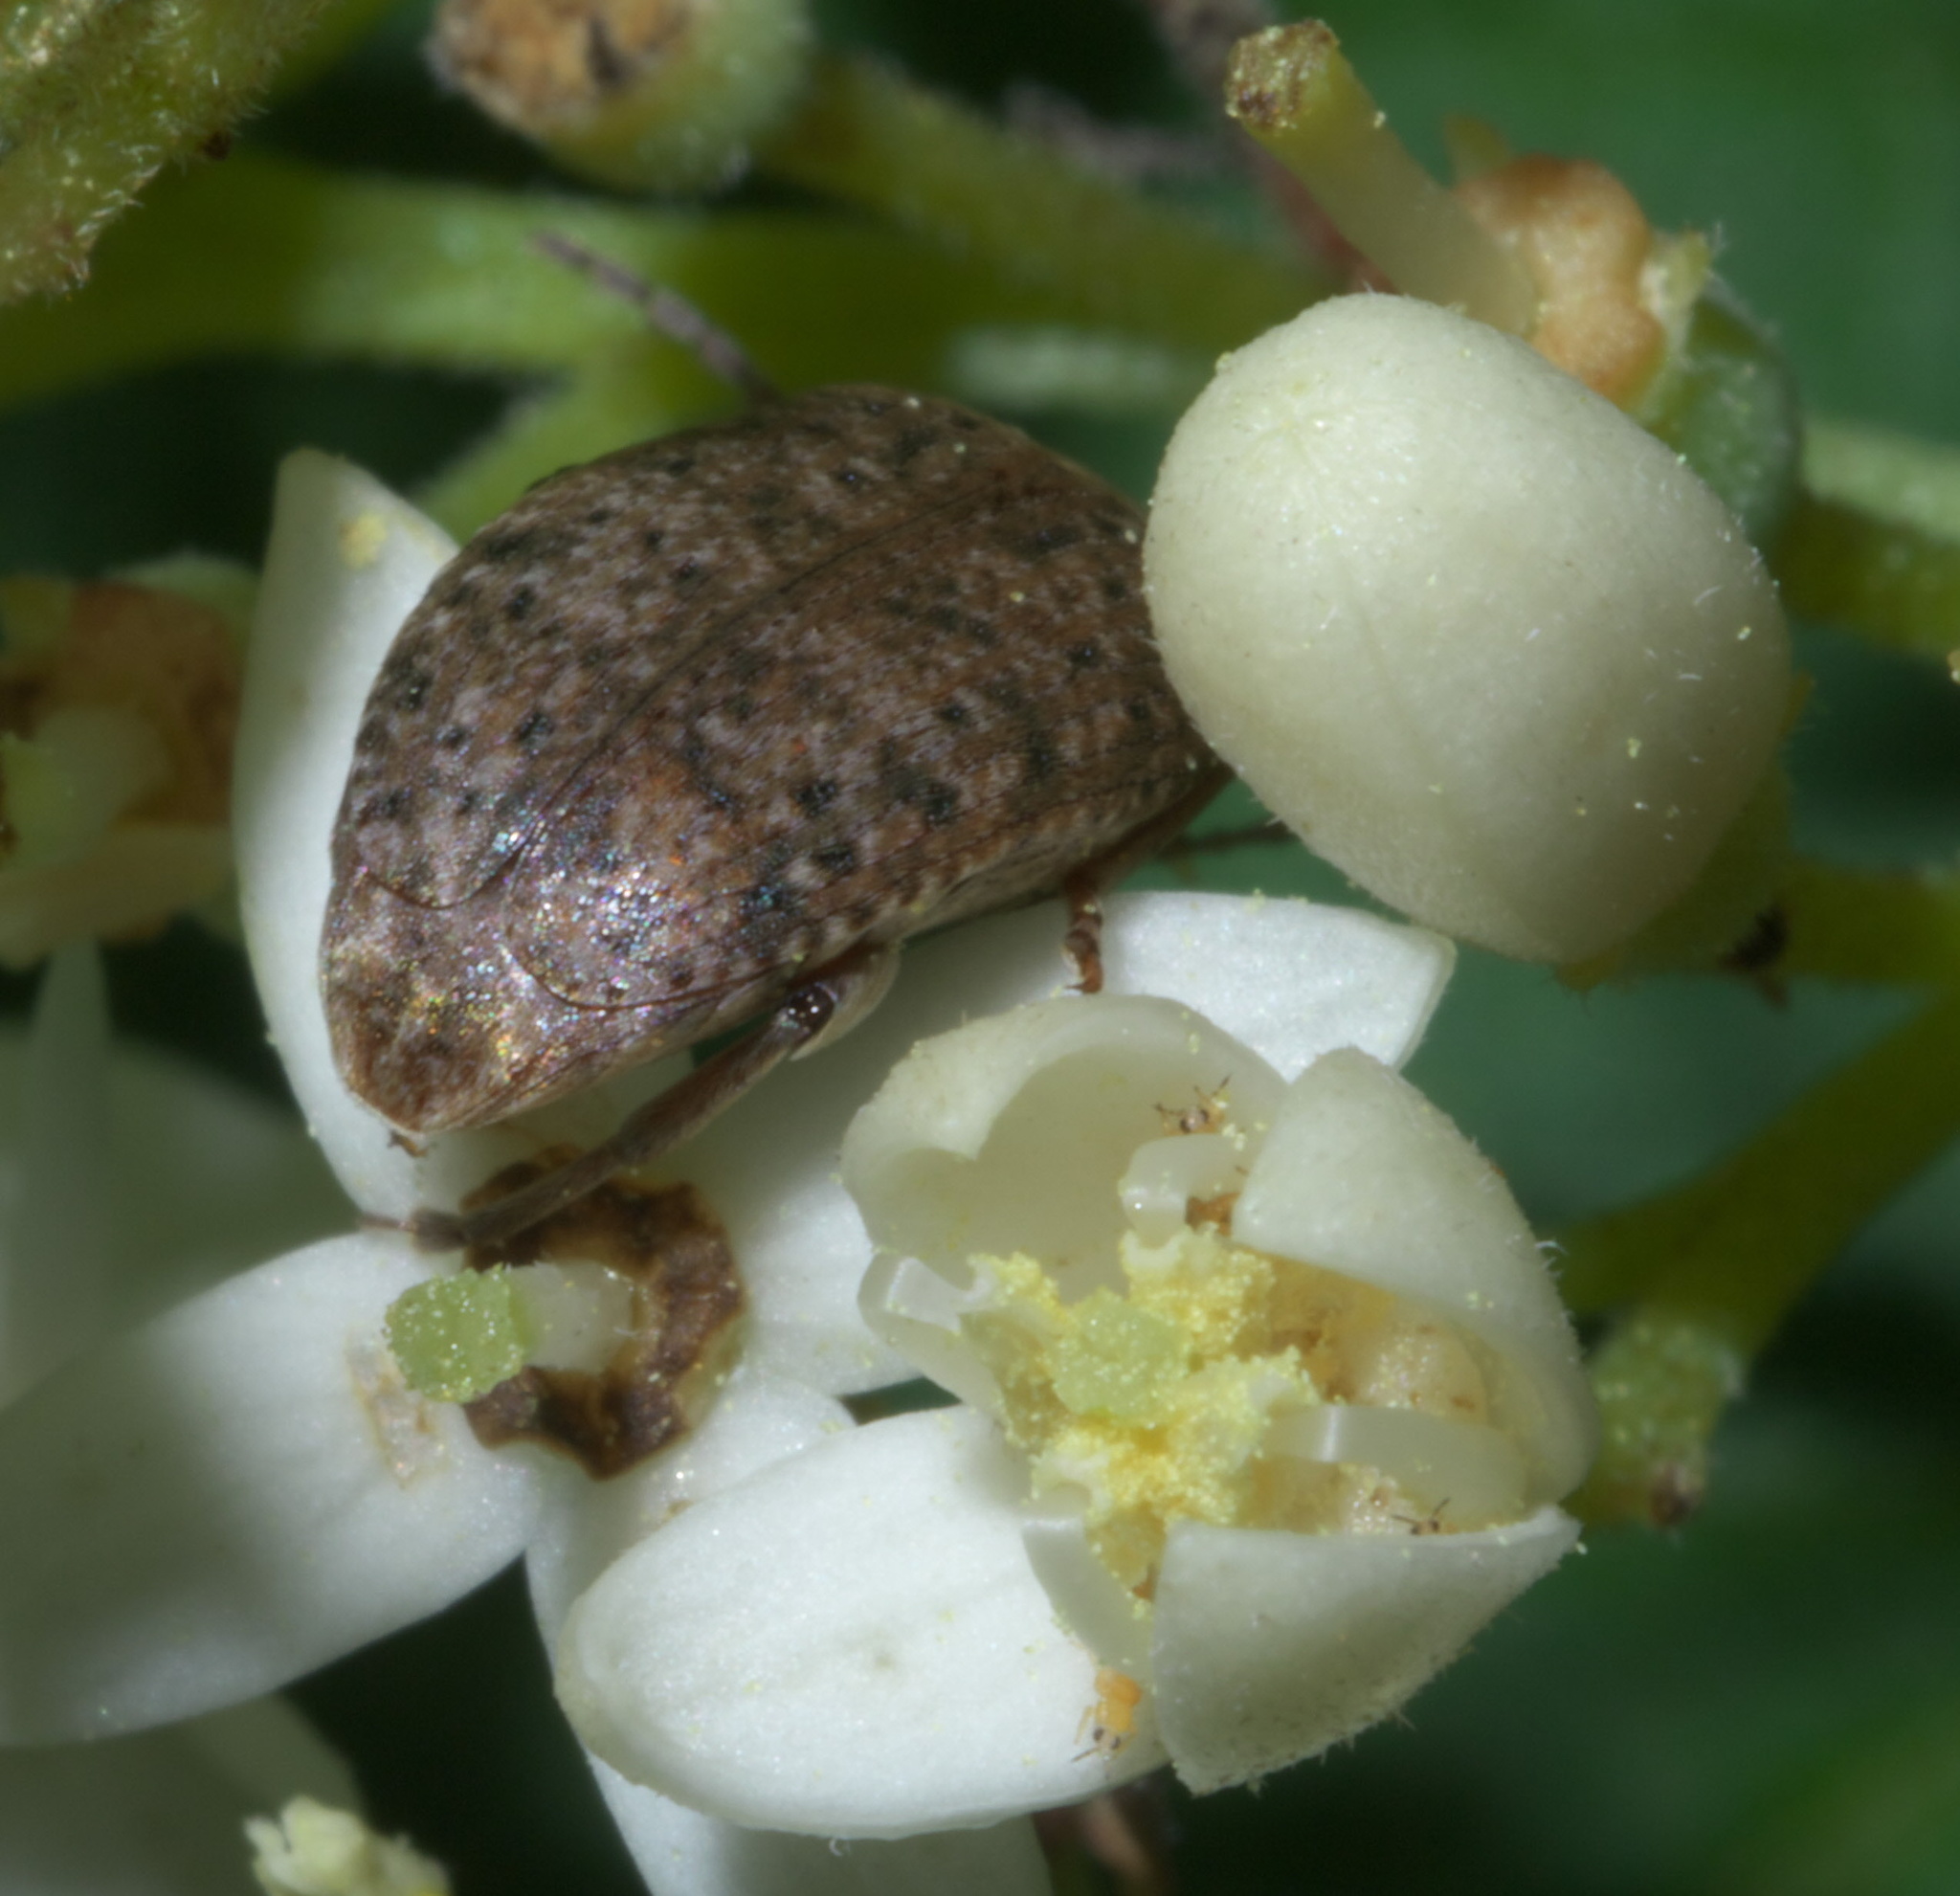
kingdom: Animalia
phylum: Arthropoda
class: Insecta
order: Coleoptera
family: Chrysomelidae
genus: Amblycerus
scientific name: Amblycerus robiniae
